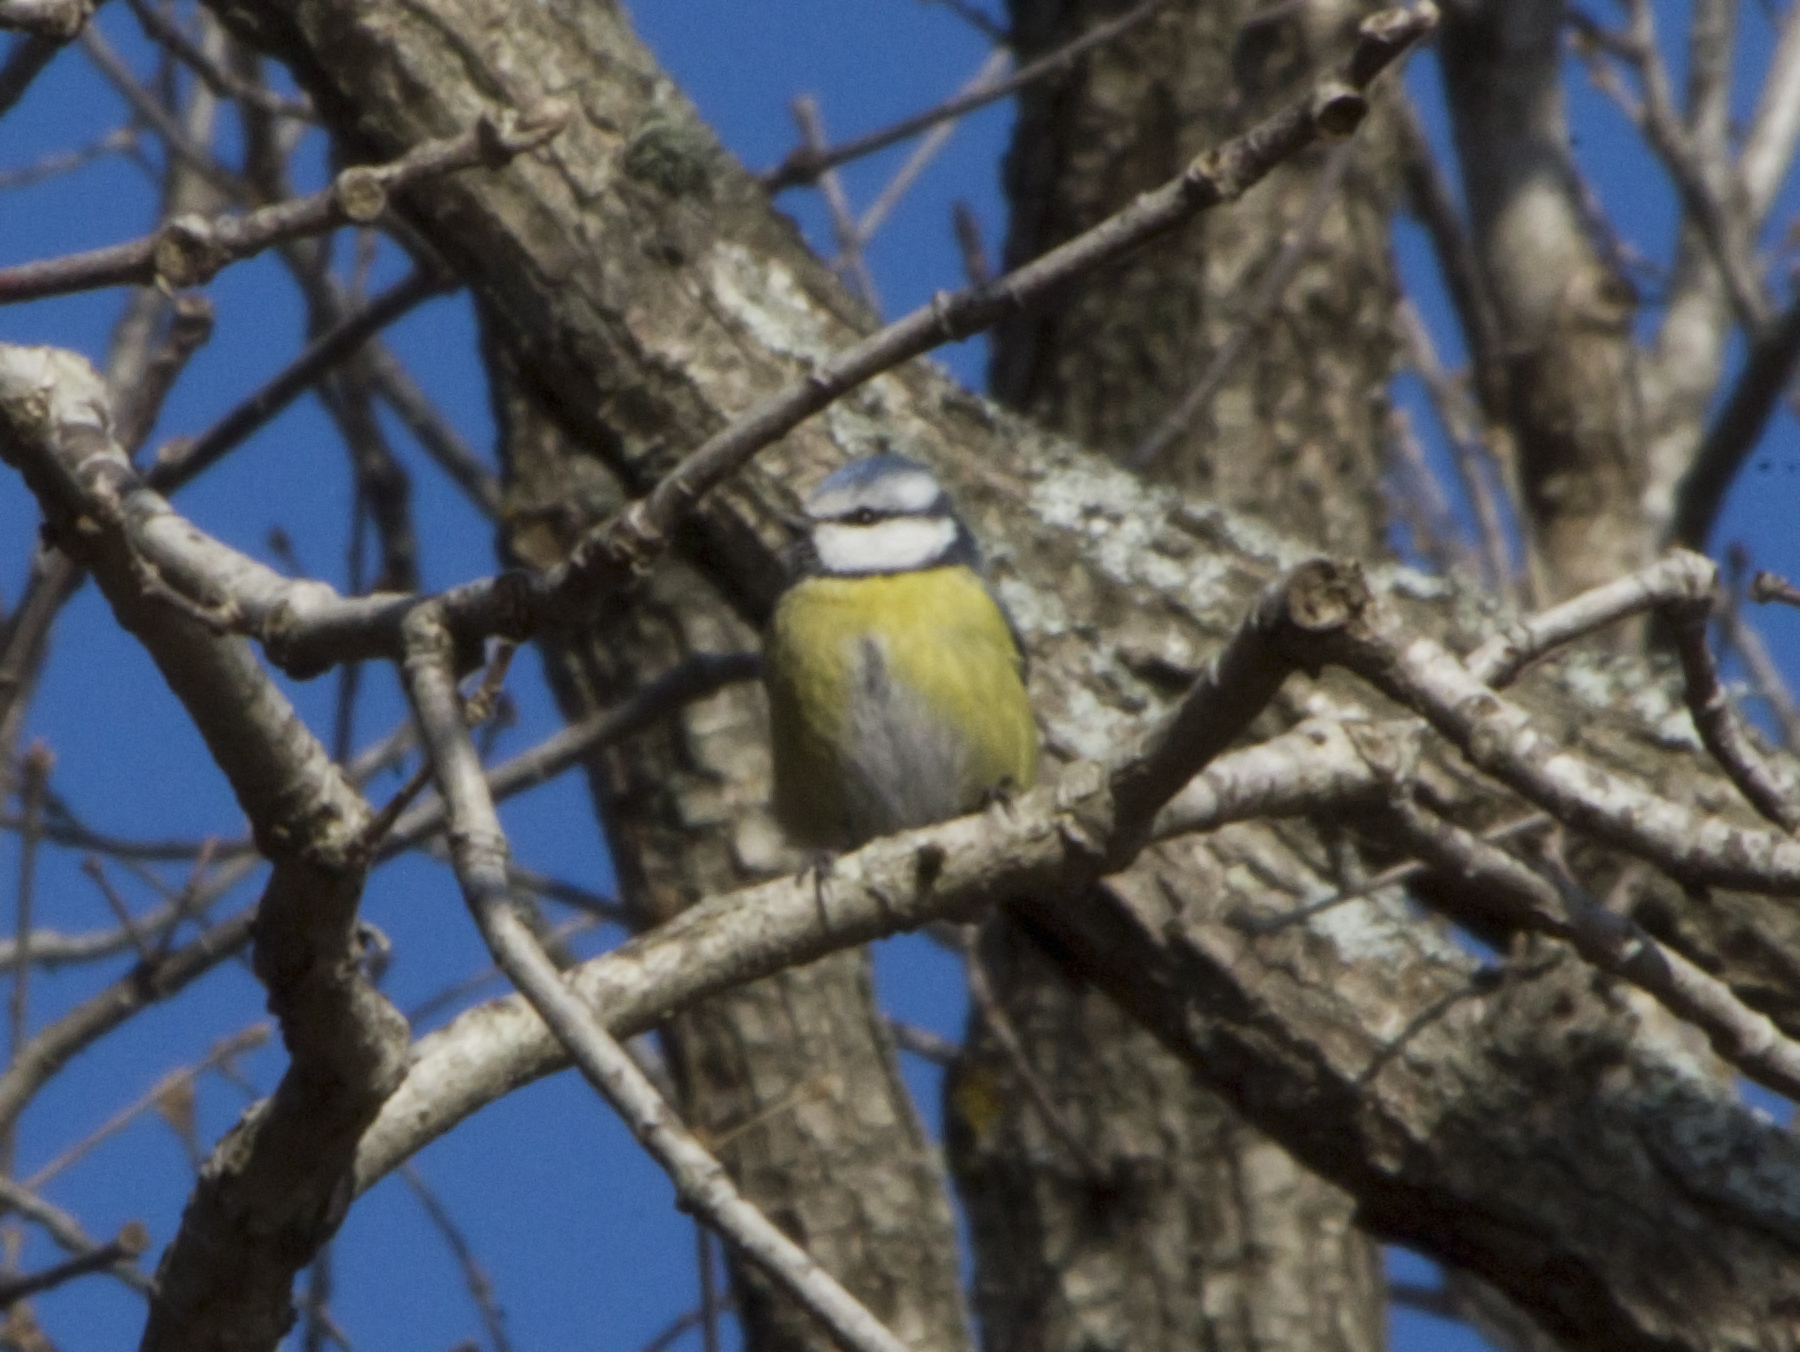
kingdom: Animalia
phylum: Chordata
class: Aves
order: Passeriformes
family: Paridae
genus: Cyanistes
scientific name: Cyanistes caeruleus
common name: Eurasian blue tit
